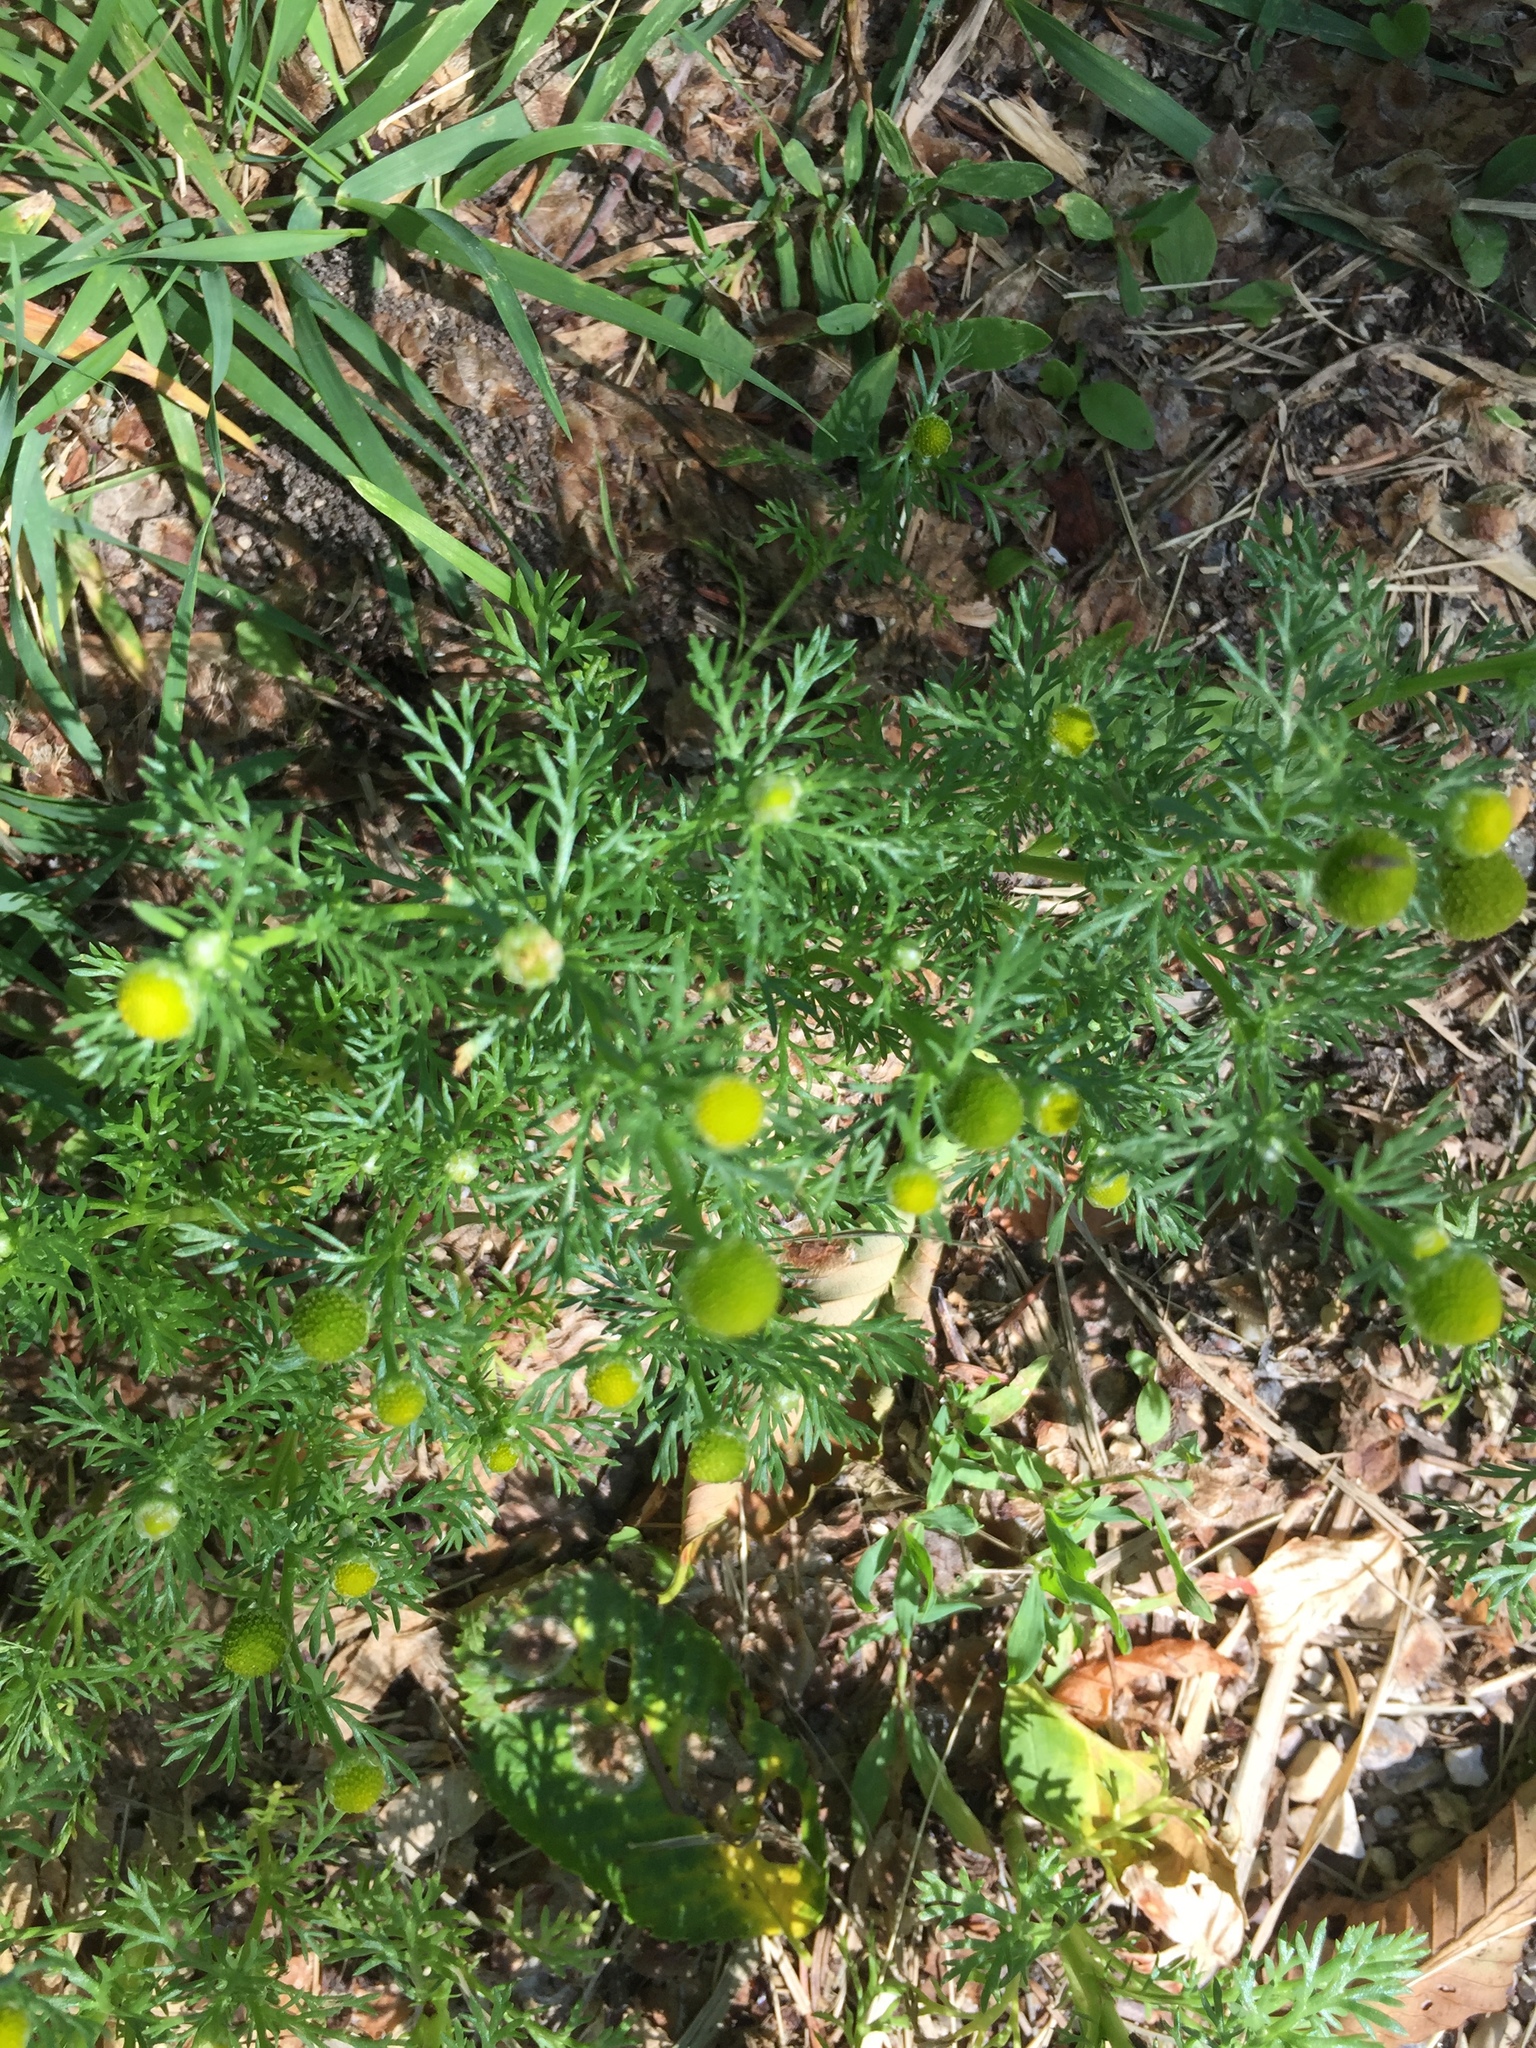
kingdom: Plantae
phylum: Tracheophyta
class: Magnoliopsida
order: Asterales
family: Asteraceae
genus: Matricaria
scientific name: Matricaria discoidea
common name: Disc mayweed
